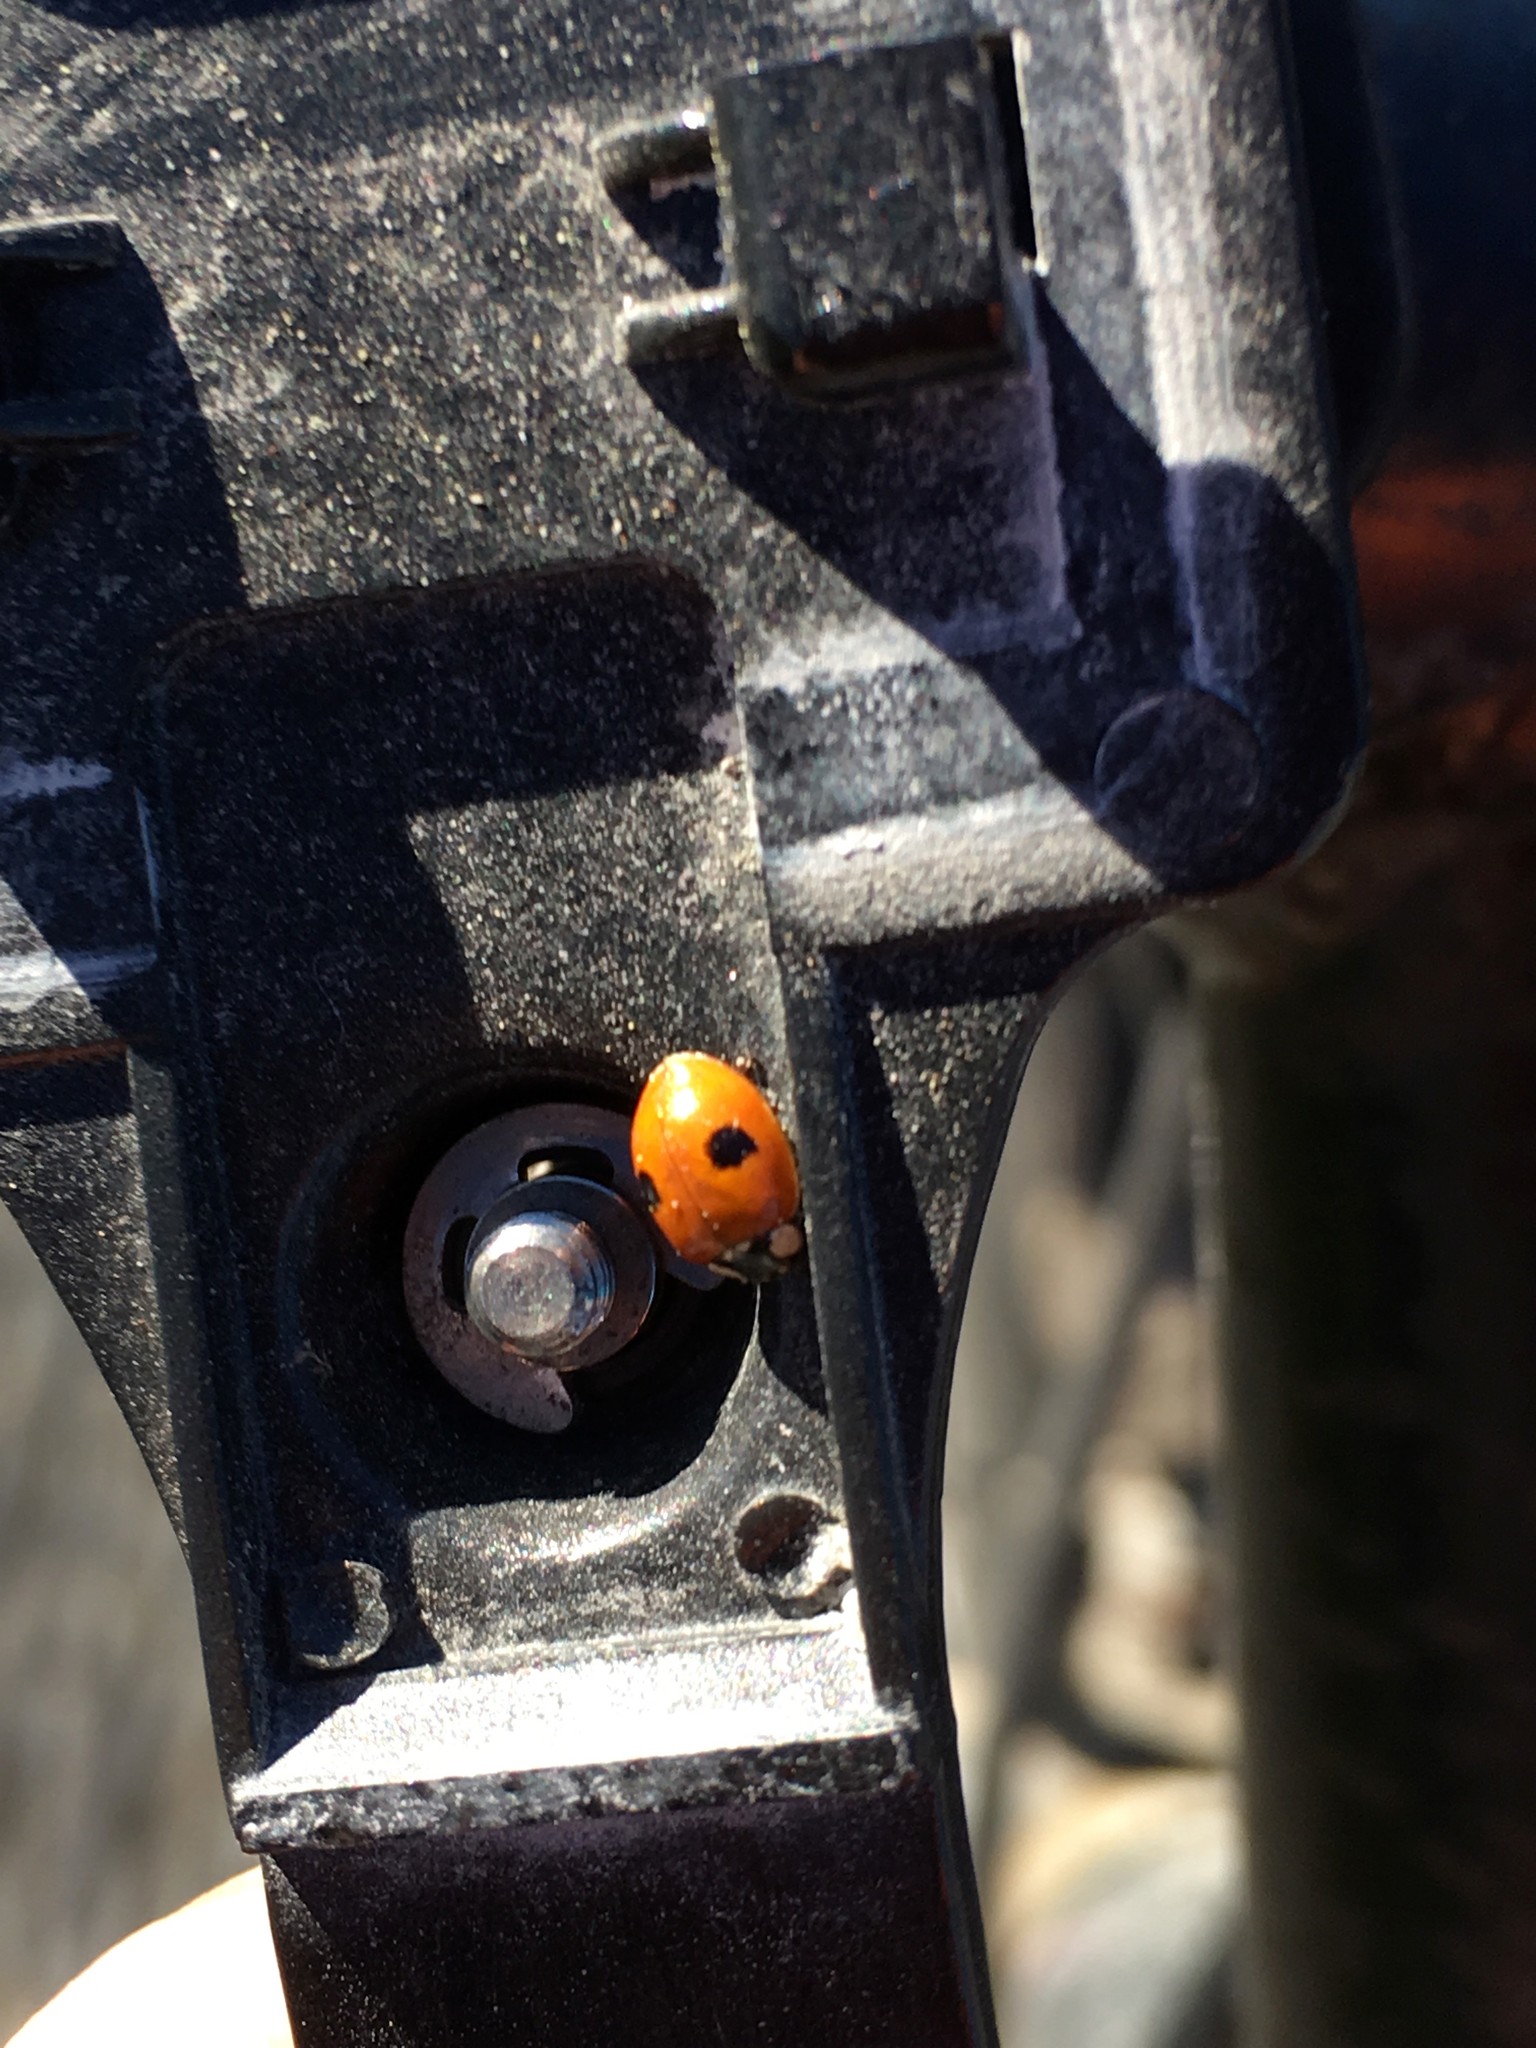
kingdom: Animalia
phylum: Arthropoda
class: Insecta
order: Coleoptera
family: Coccinellidae
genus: Adalia
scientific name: Adalia bipunctata
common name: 2-spot ladybird
